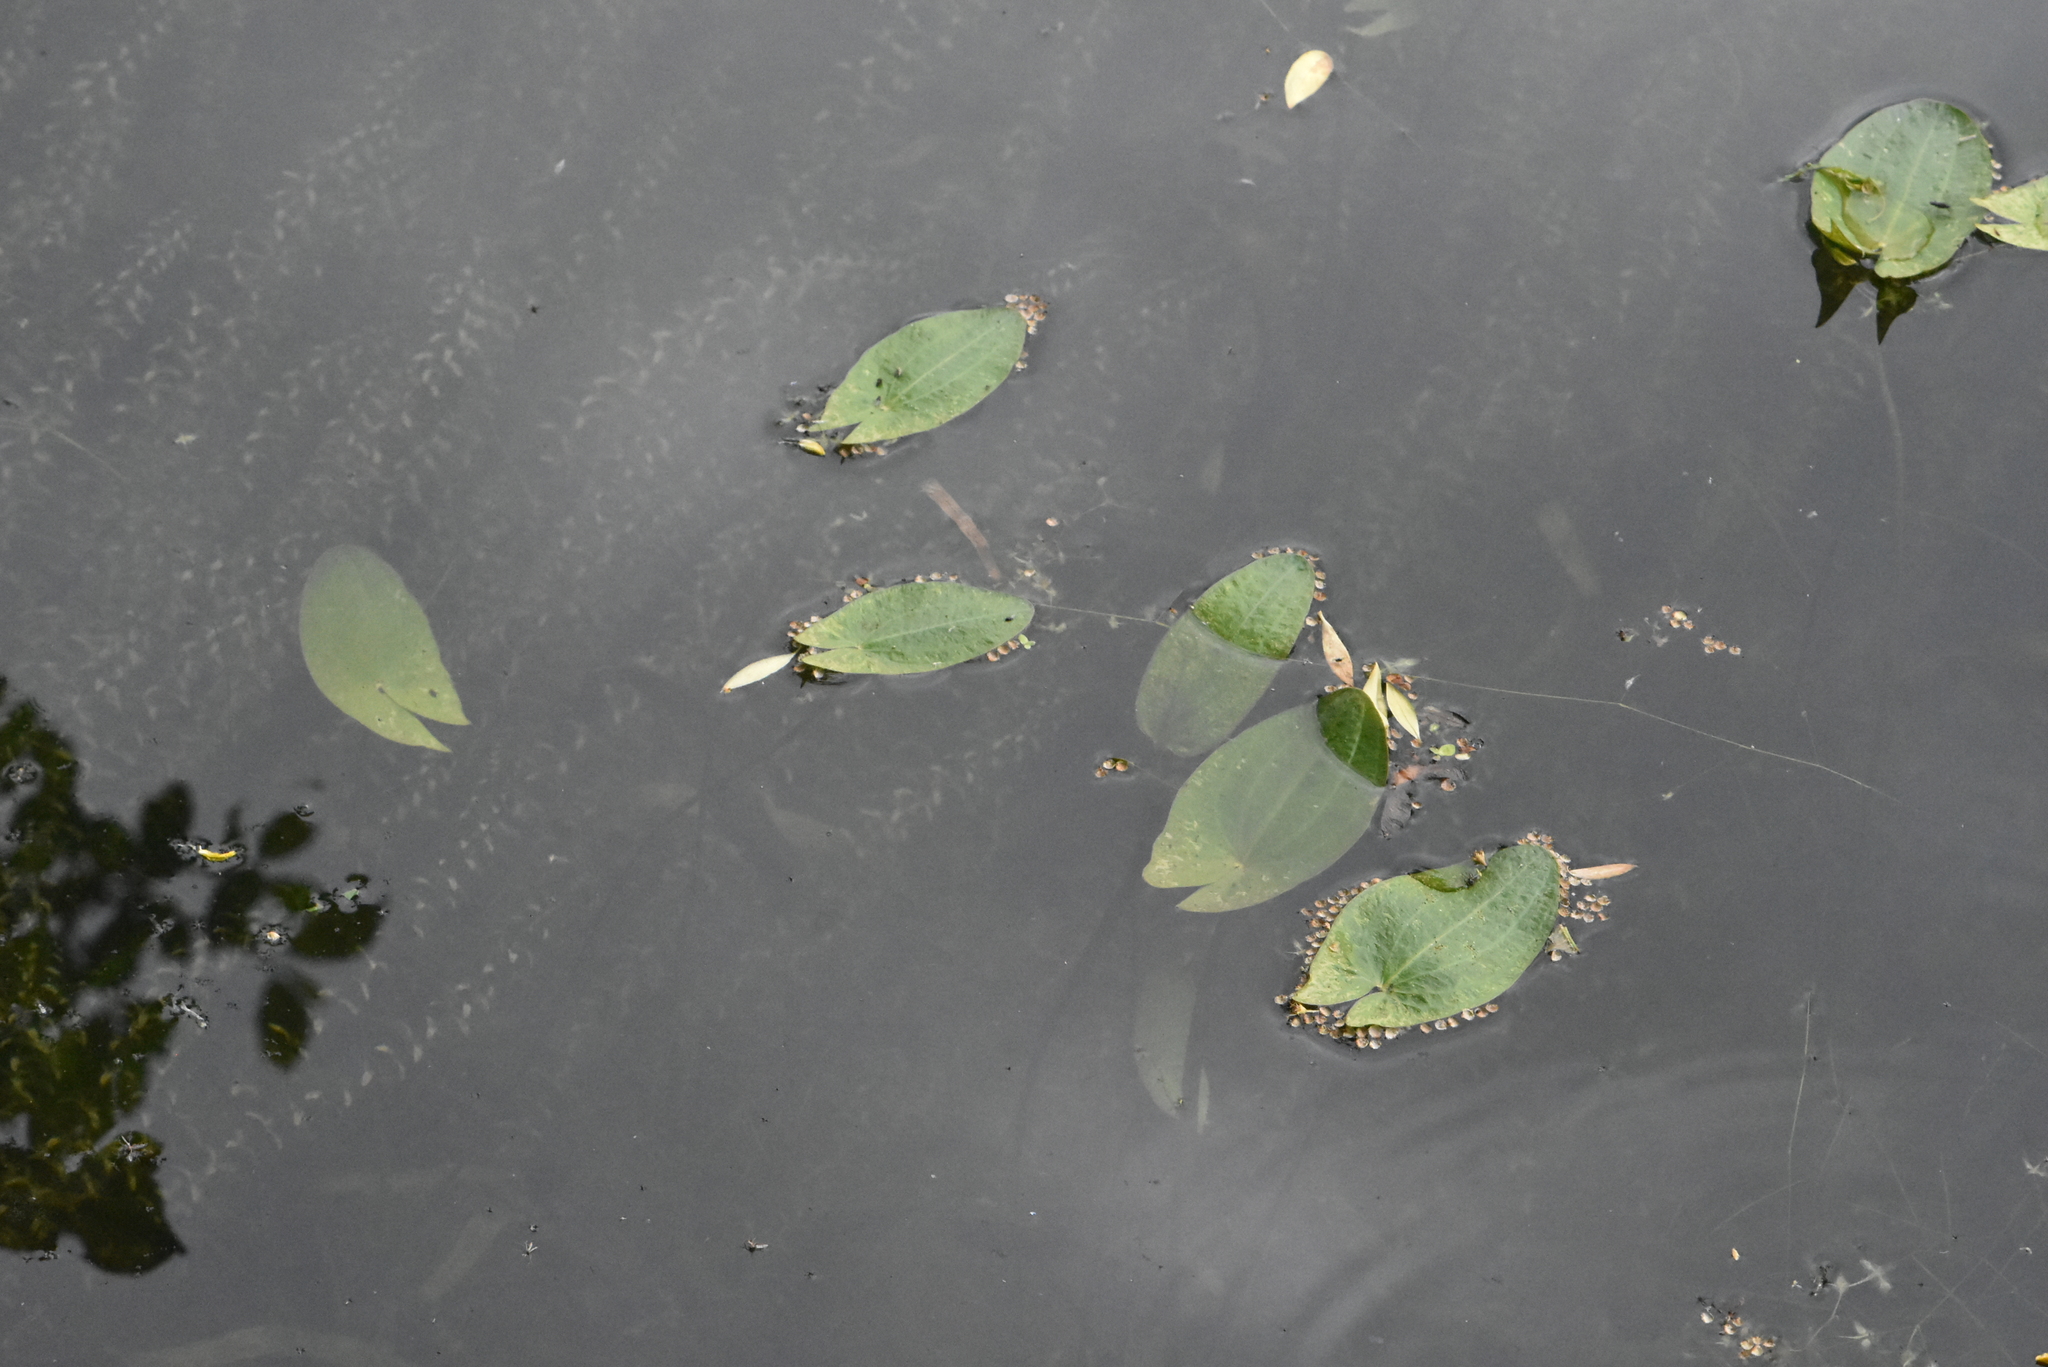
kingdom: Plantae
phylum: Tracheophyta
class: Liliopsida
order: Alismatales
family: Alismataceae
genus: Sagittaria
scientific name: Sagittaria sagittifolia
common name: Arrowhead
